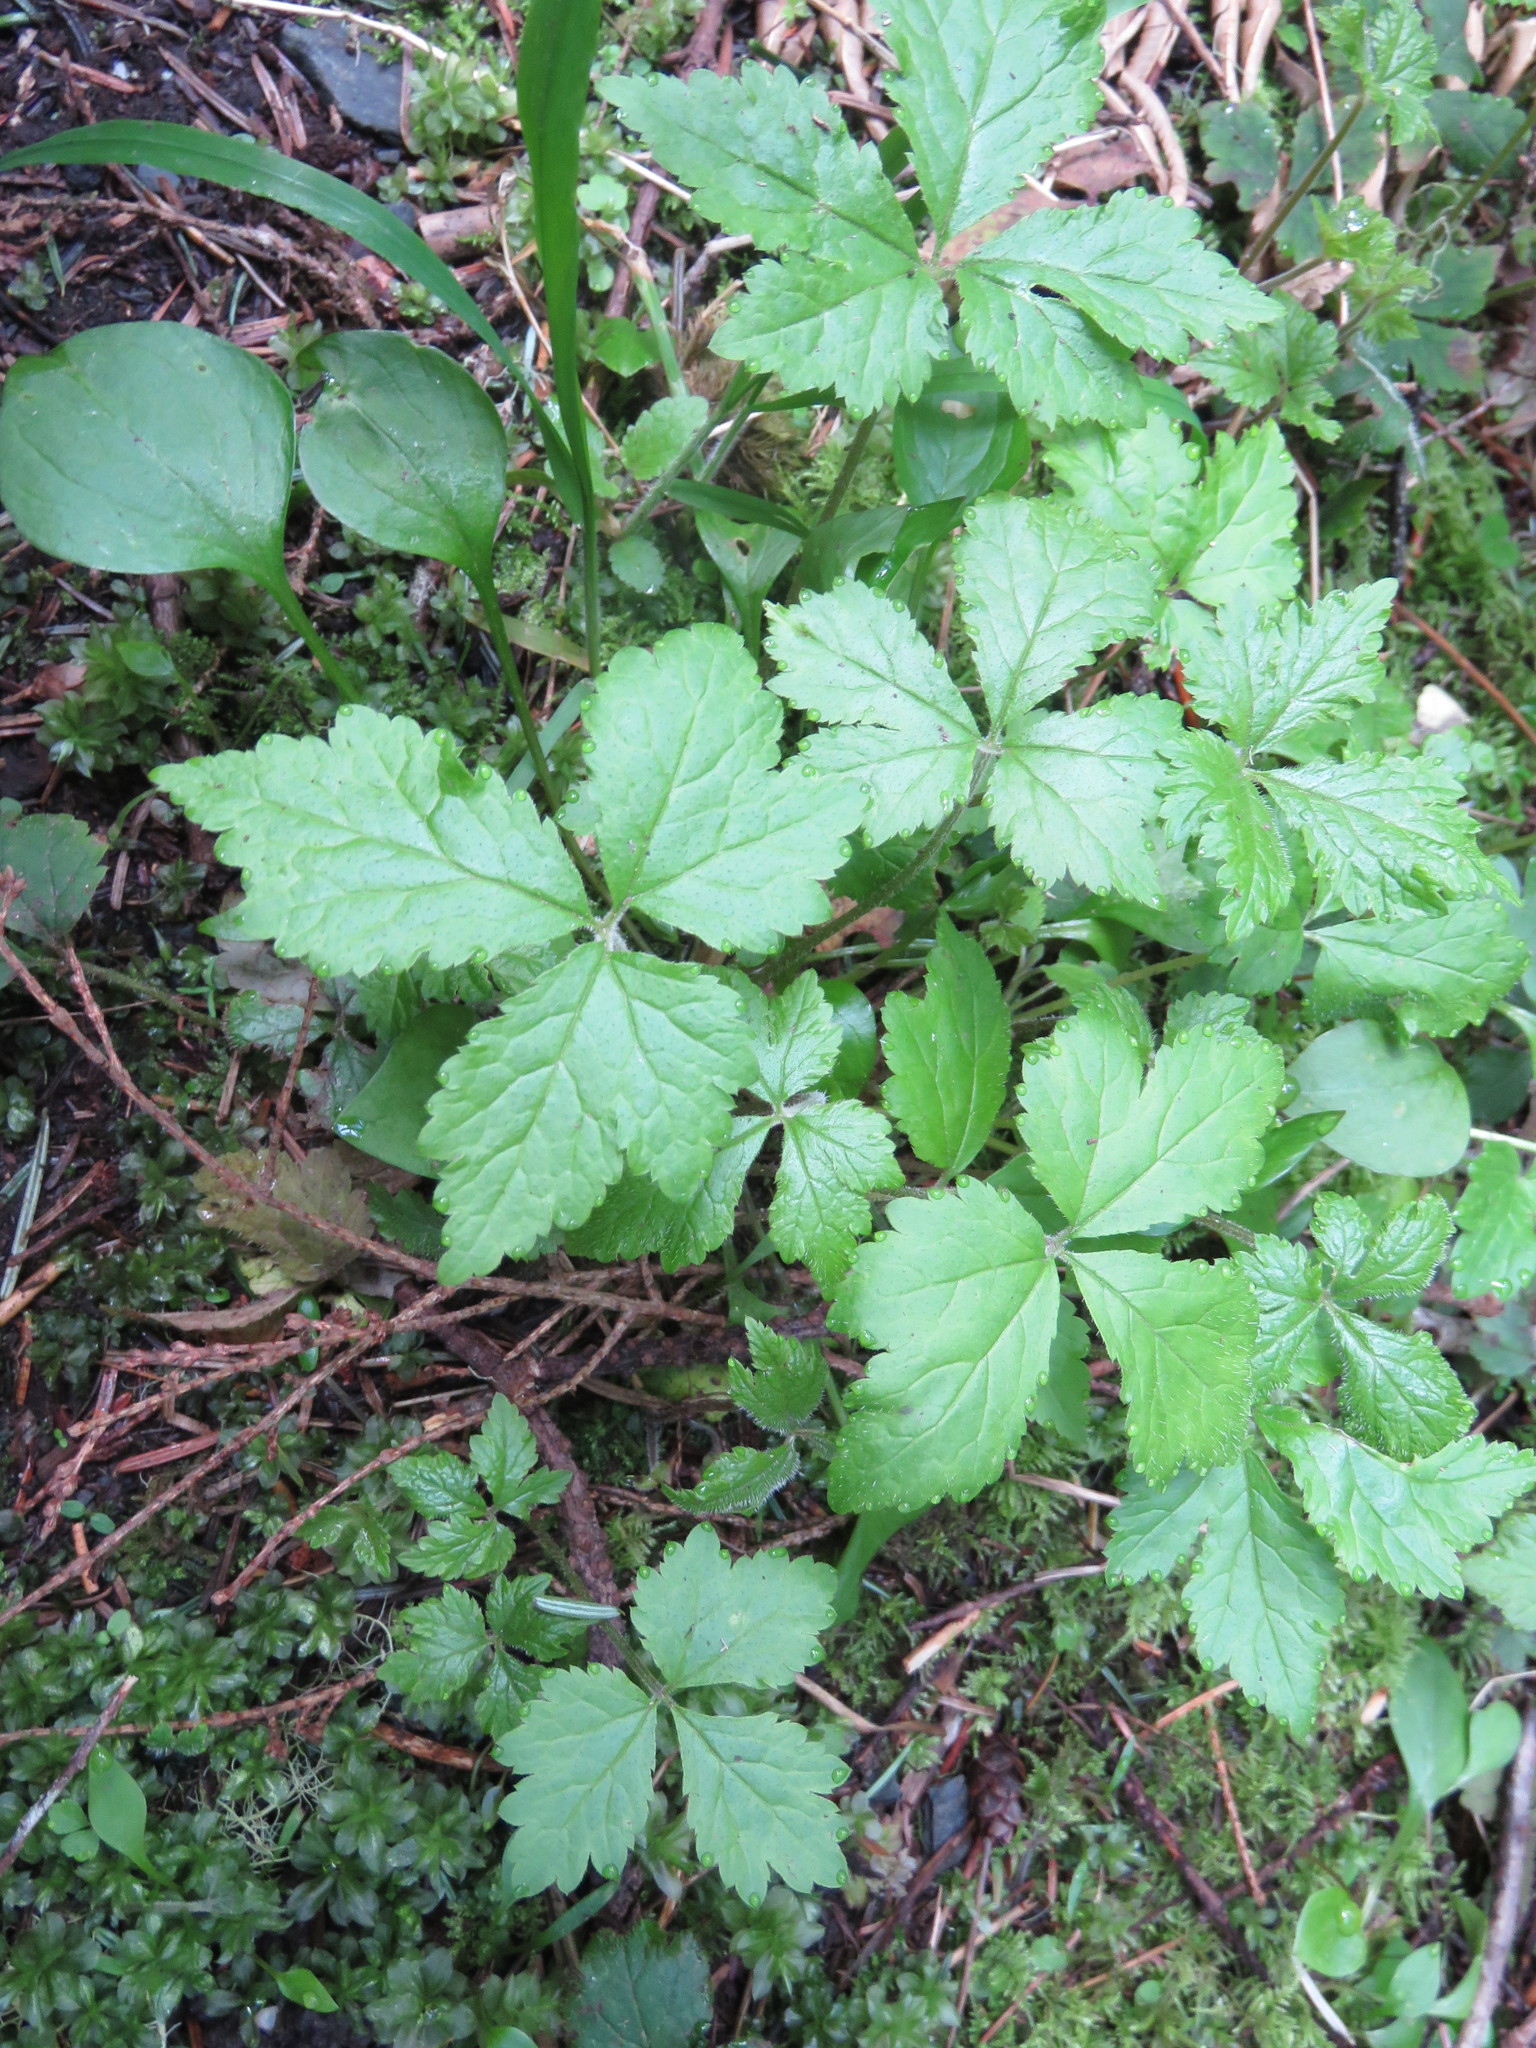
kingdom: Plantae
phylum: Tracheophyta
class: Magnoliopsida
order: Saxifragales
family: Saxifragaceae
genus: Tiarella
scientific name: Tiarella trifoliata
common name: Sugar-scoop
